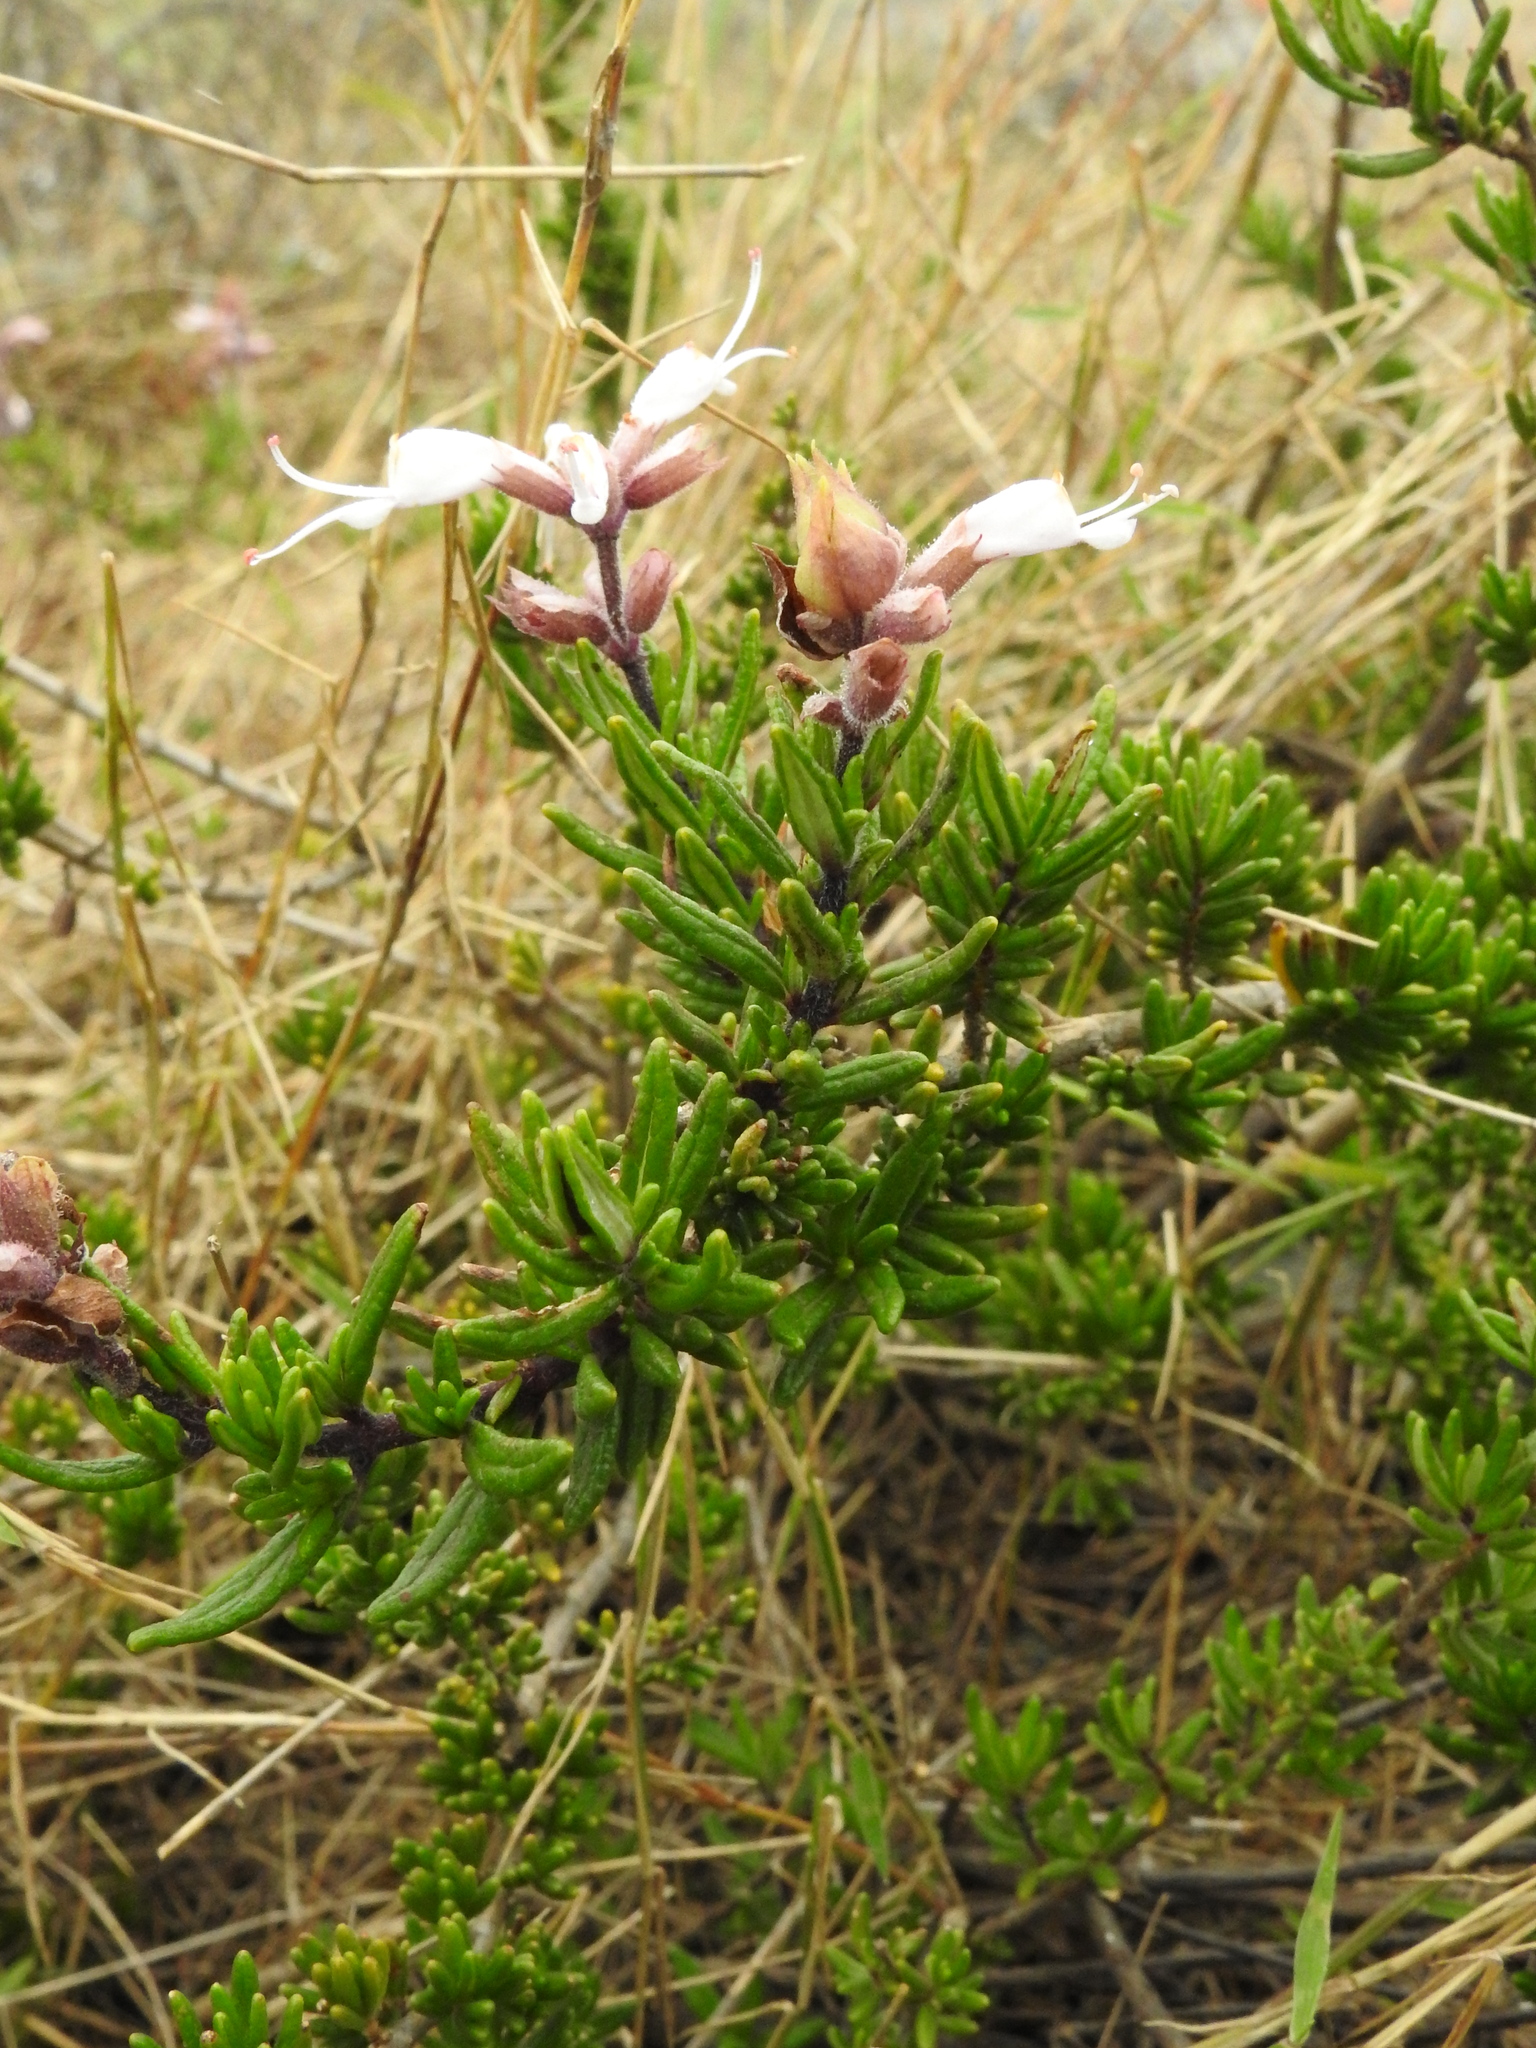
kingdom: Plantae
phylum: Tracheophyta
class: Magnoliopsida
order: Lamiales
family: Lamiaceae
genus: Syncolostemon
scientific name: Syncolostemon albiflorus
